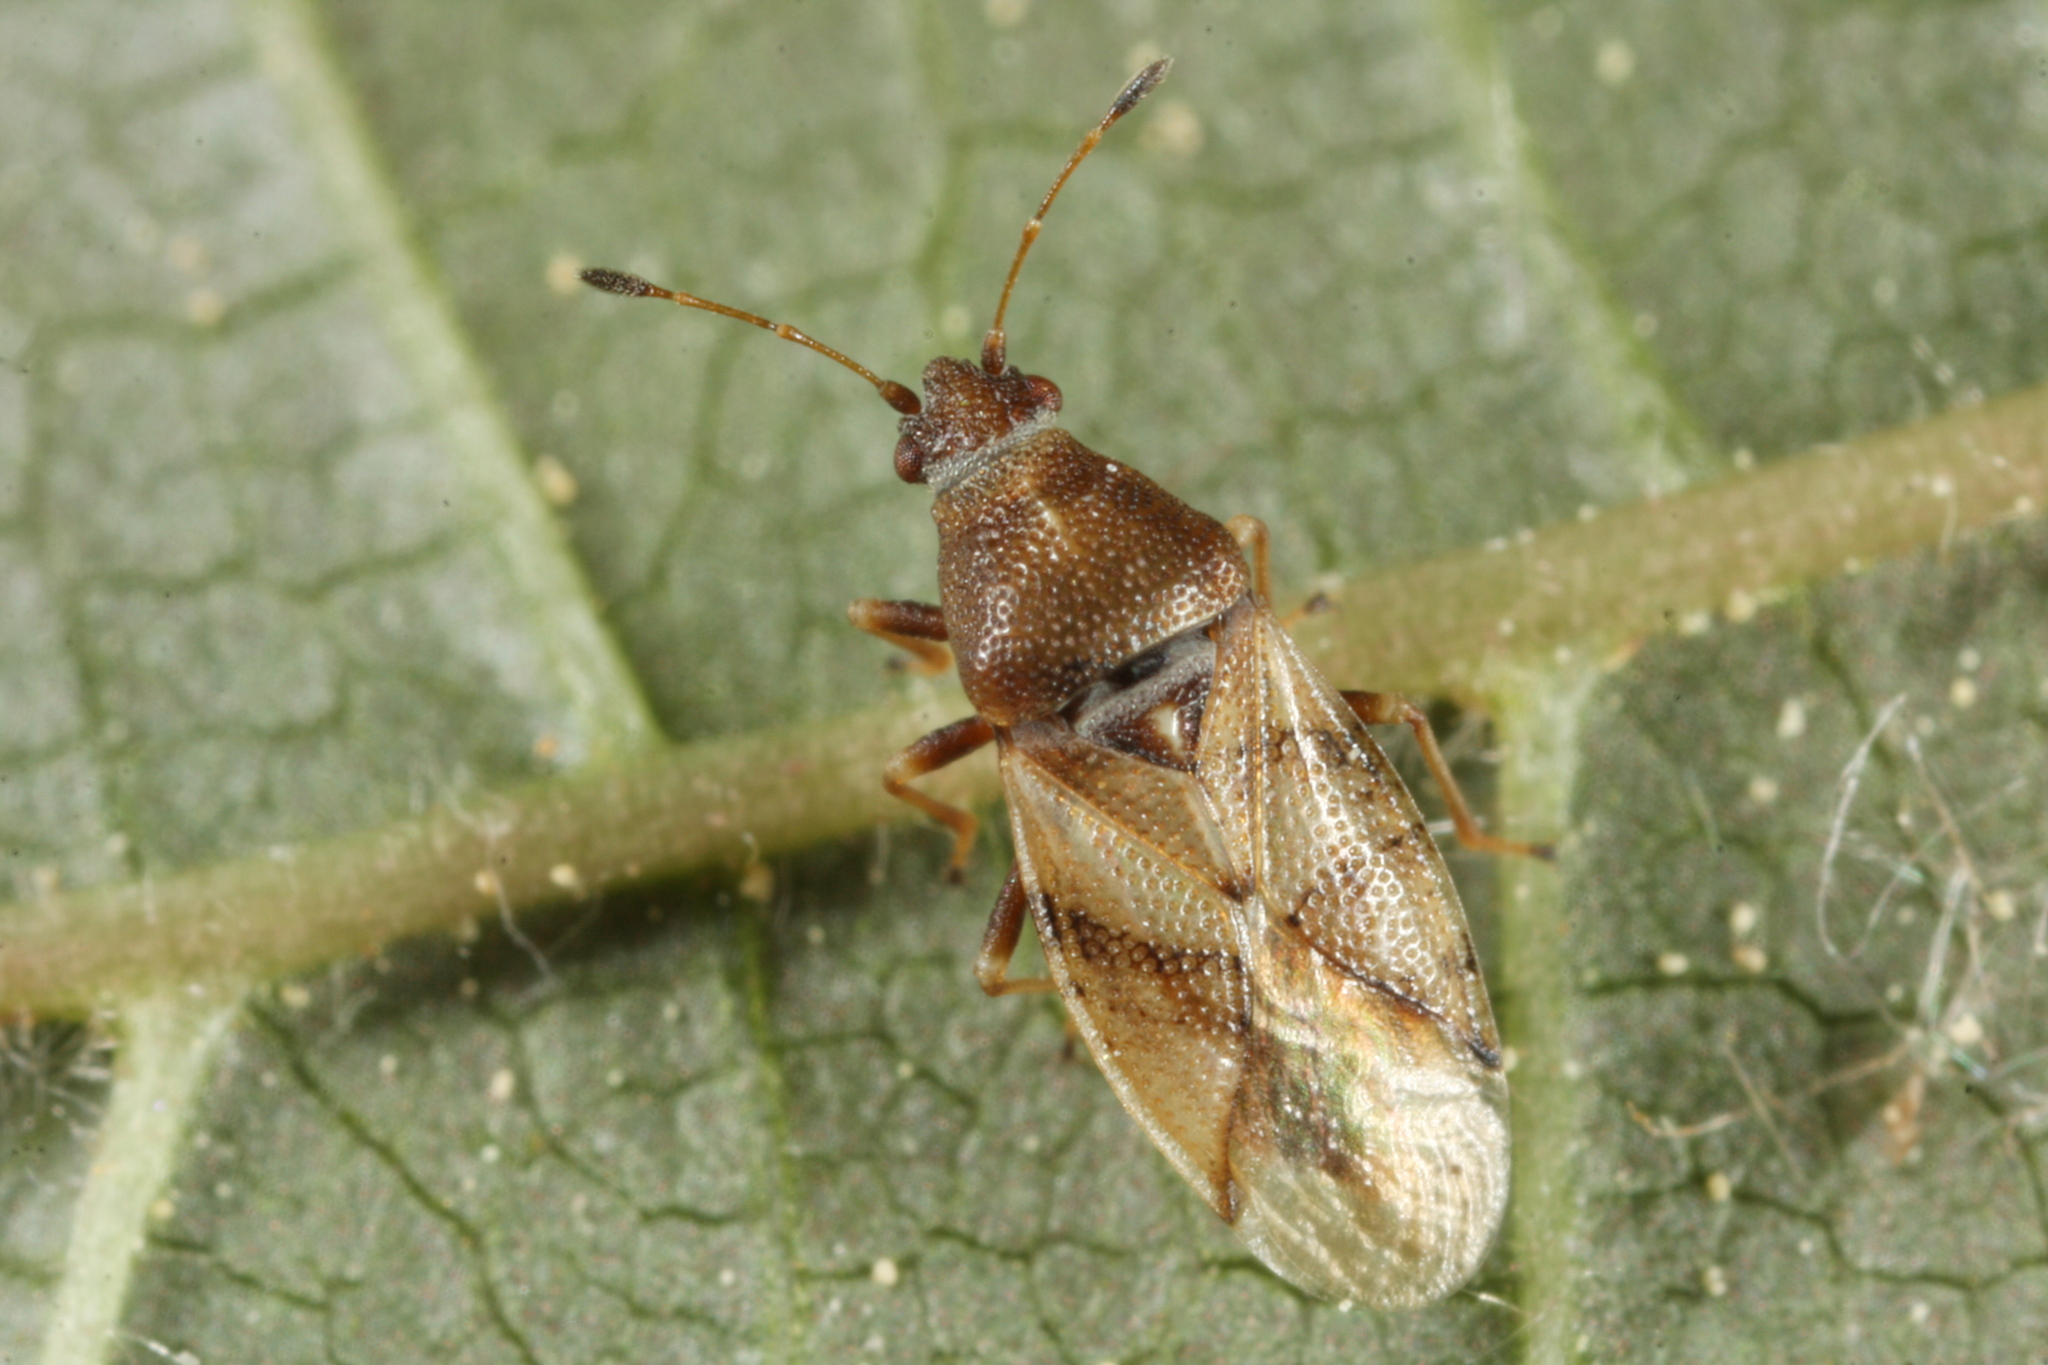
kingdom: Animalia
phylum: Arthropoda
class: Insecta
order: Hemiptera
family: Cymidae
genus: Cymus
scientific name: Cymus aurescens
